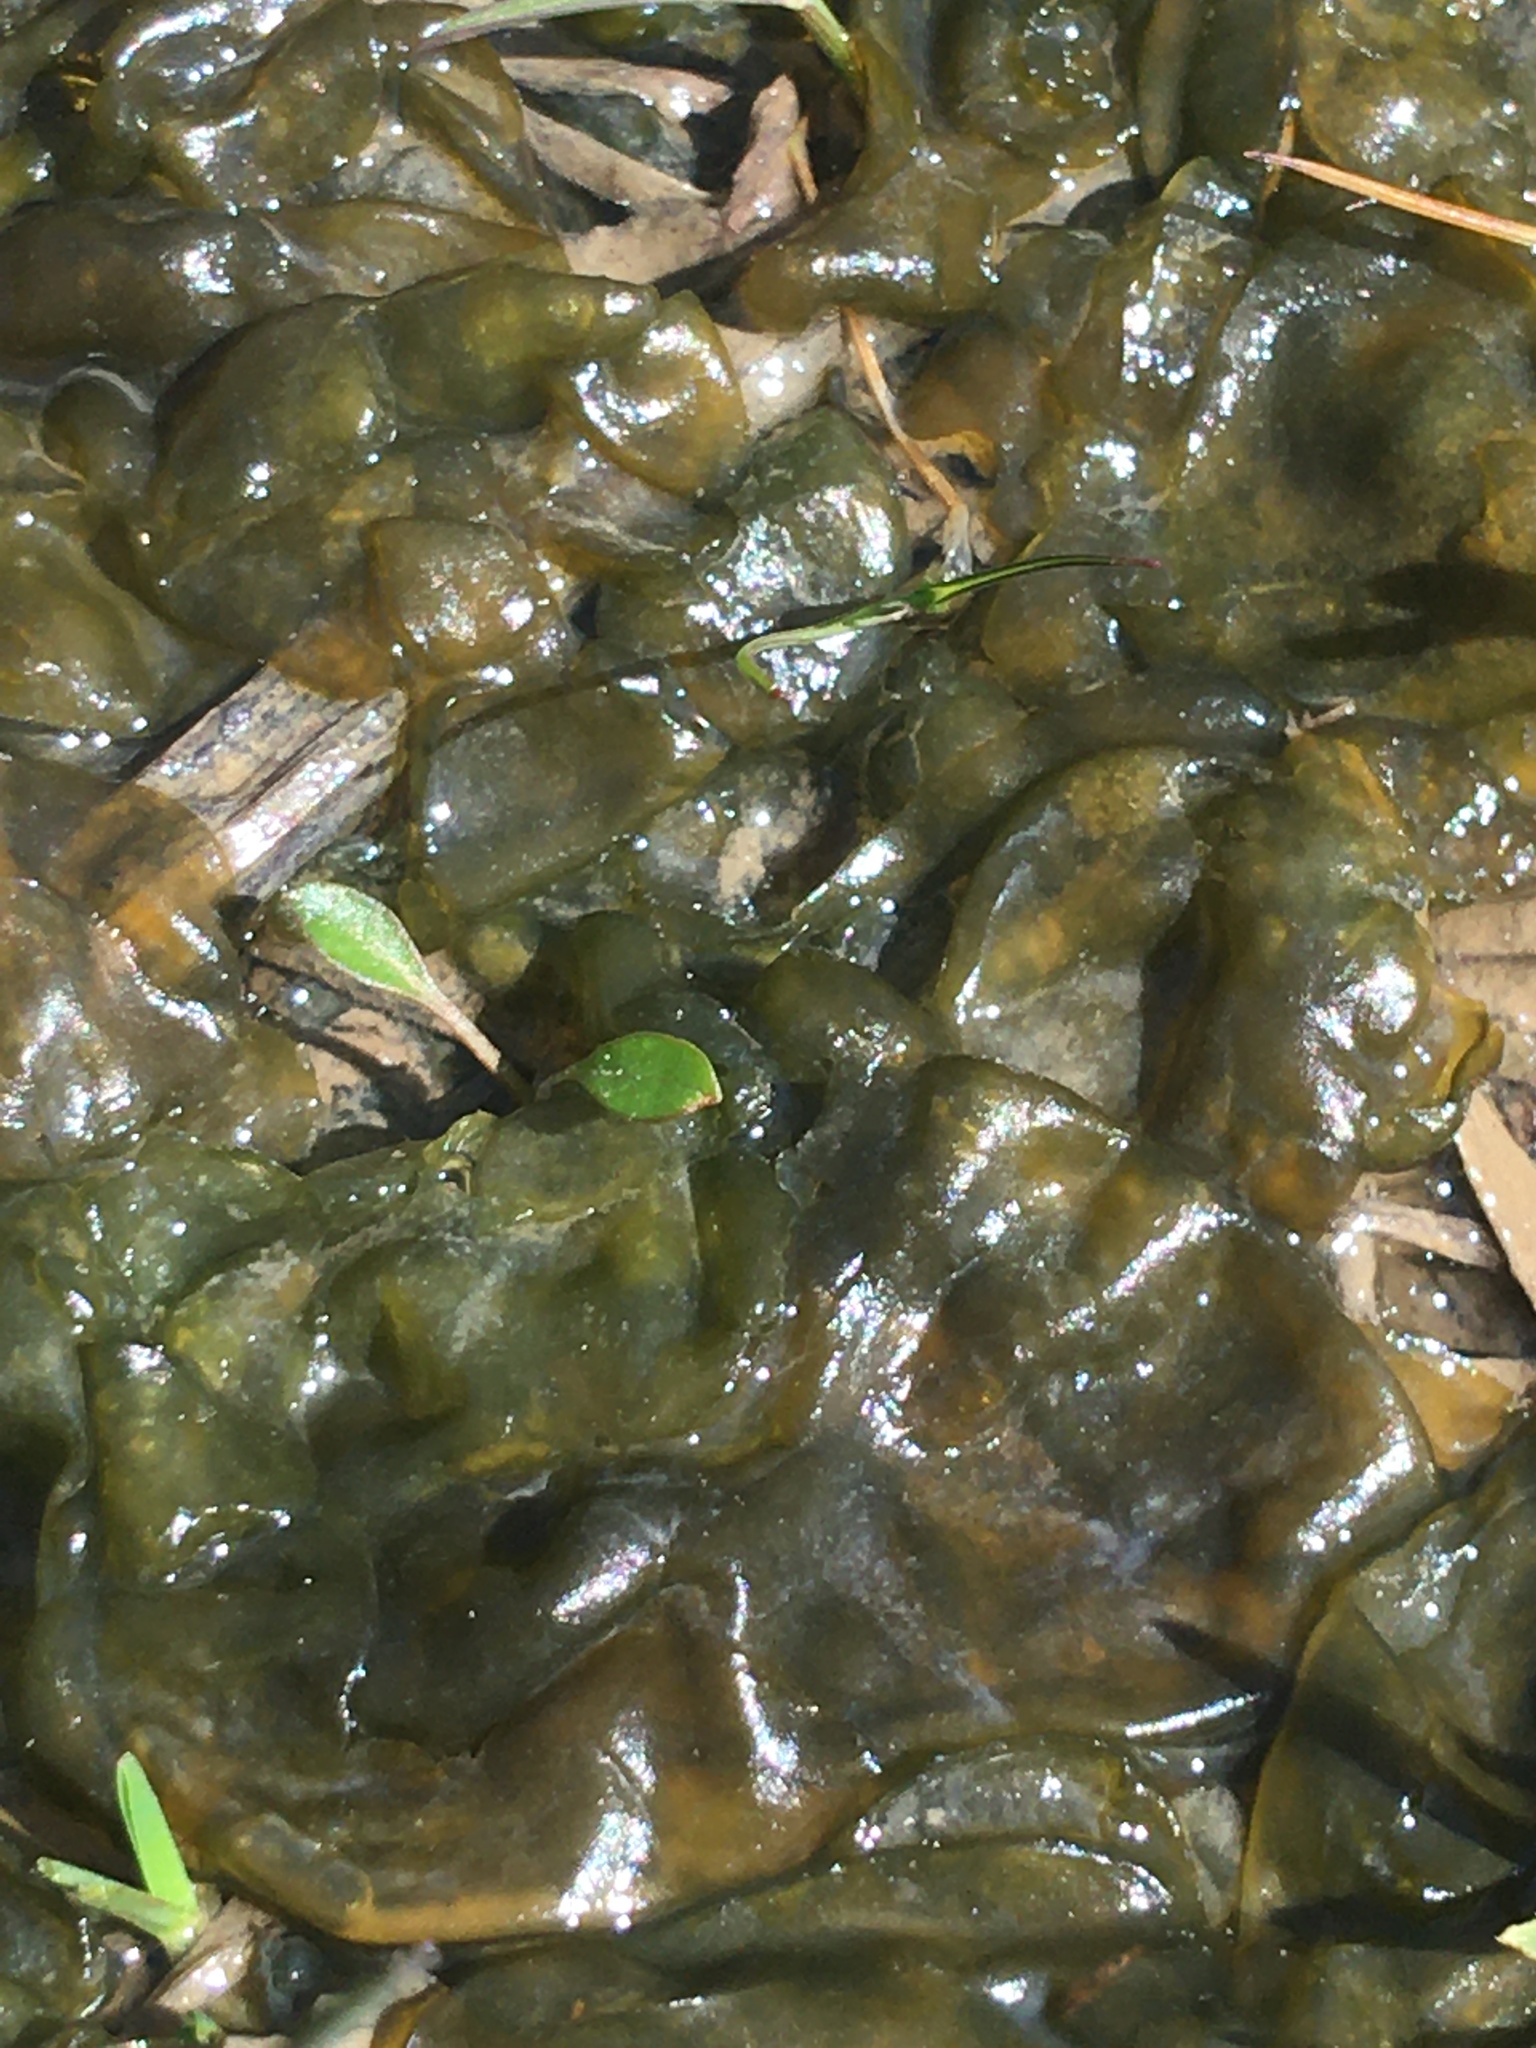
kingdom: Bacteria
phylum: Cyanobacteria
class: Cyanobacteriia
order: Cyanobacteriales
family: Nostocaceae
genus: Nostoc
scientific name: Nostoc commune
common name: Star jelly
